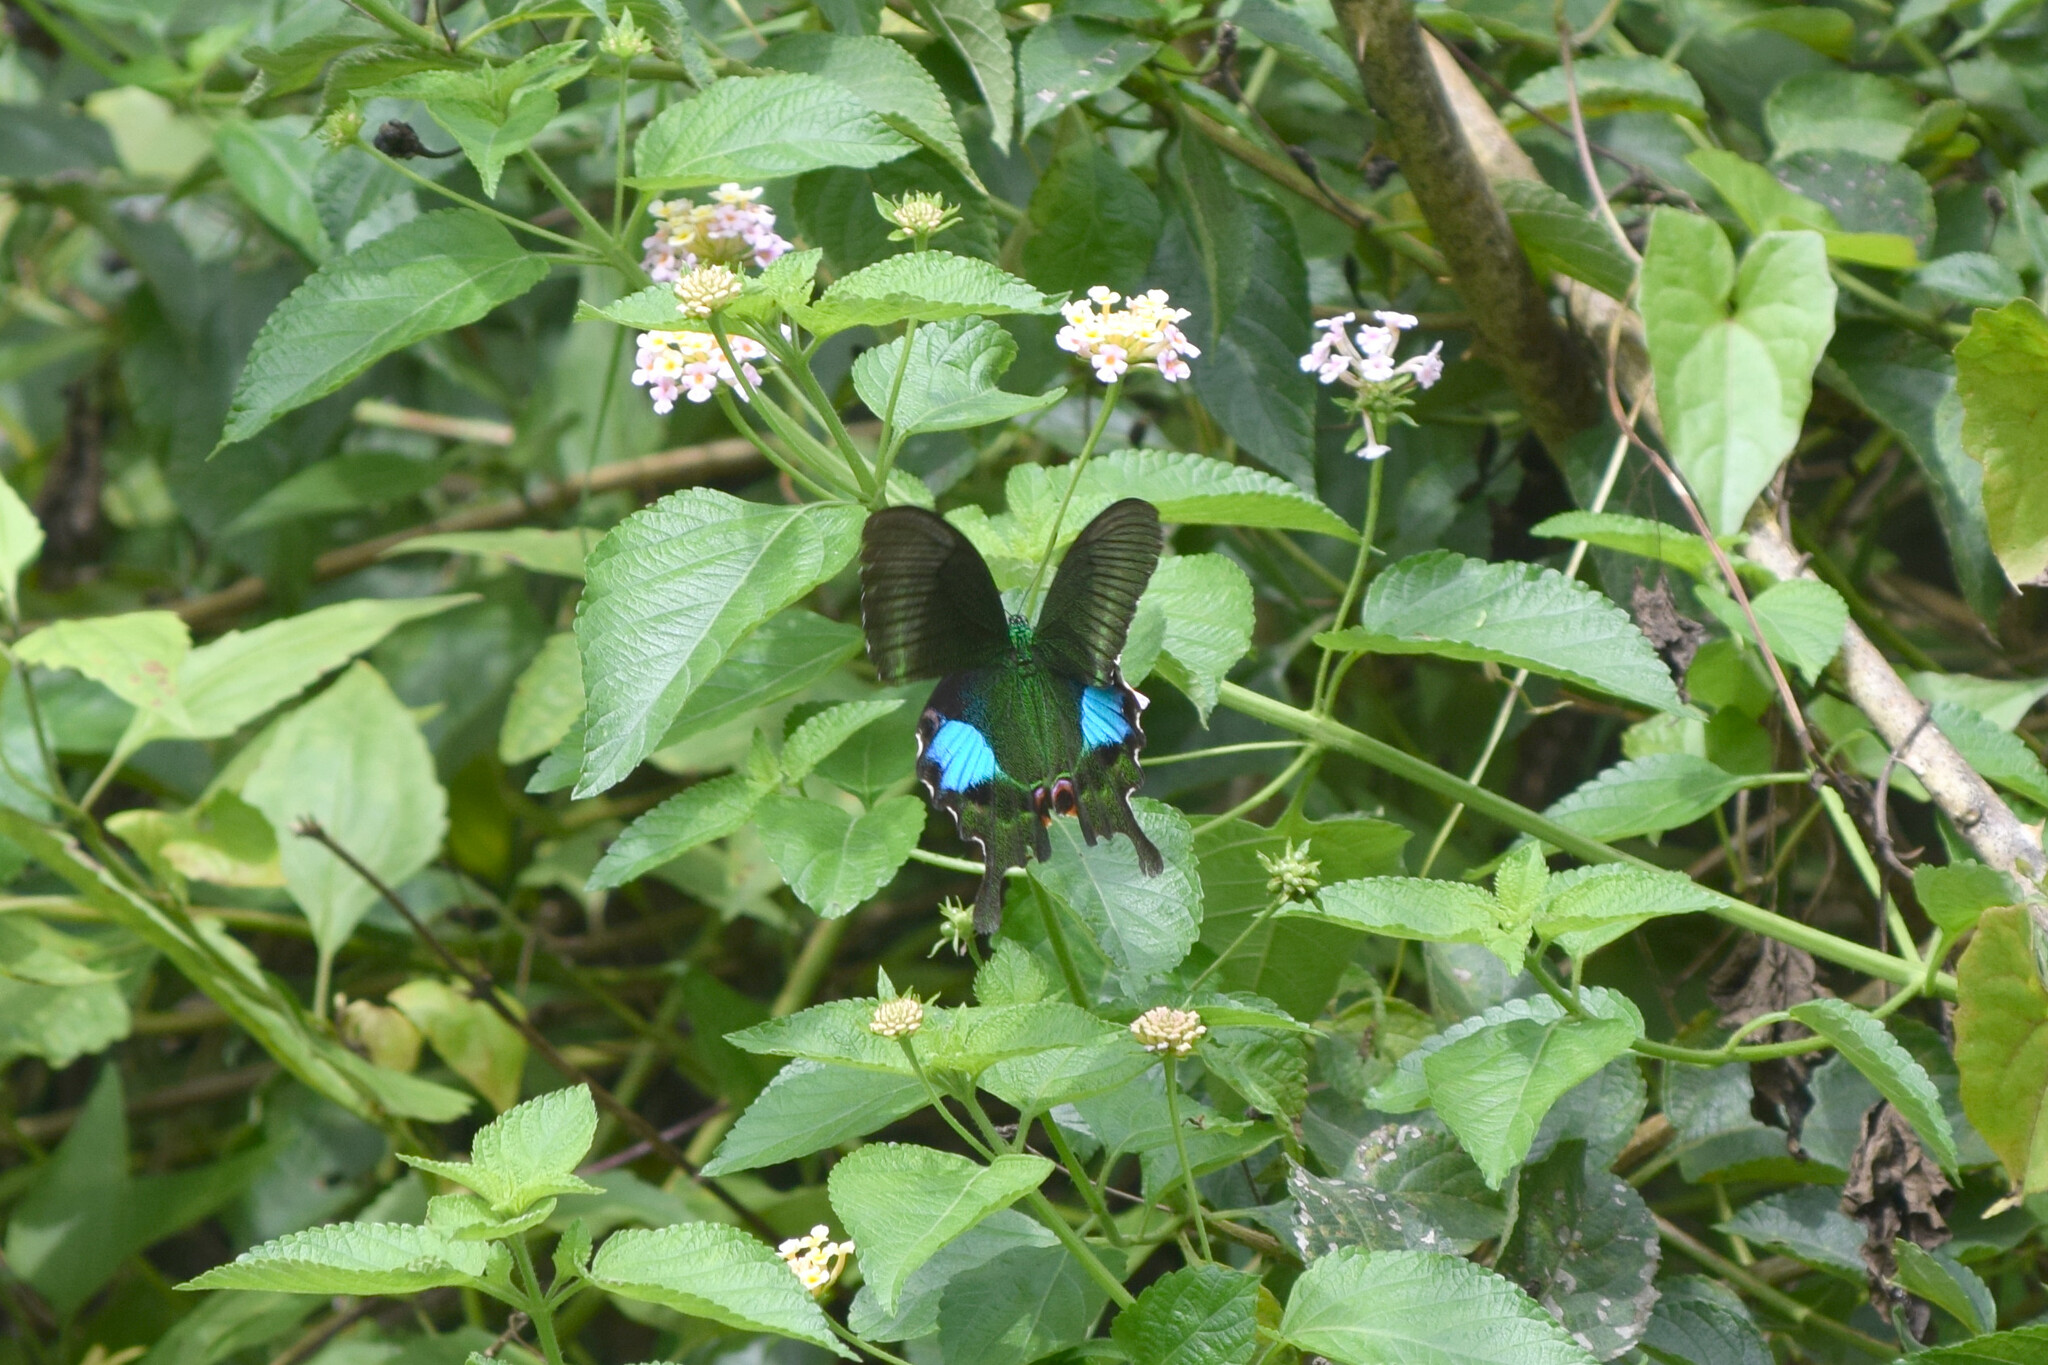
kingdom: Animalia
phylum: Arthropoda
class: Insecta
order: Lepidoptera
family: Papilionidae
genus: Papilio
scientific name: Papilio paris
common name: Paris peacock
